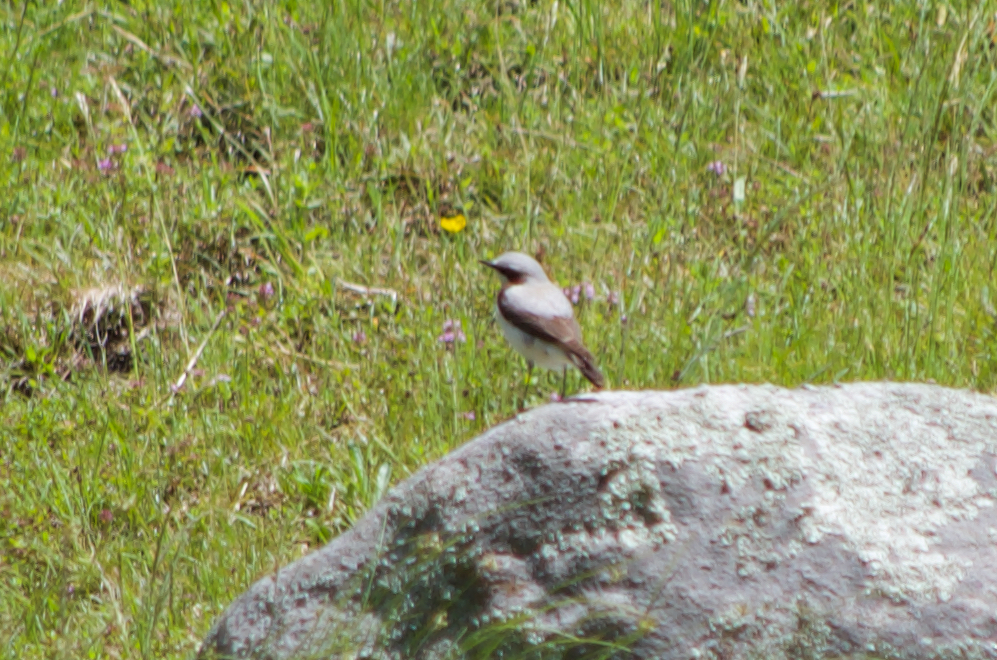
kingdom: Animalia
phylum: Chordata
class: Aves
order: Passeriformes
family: Muscicapidae
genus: Oenanthe
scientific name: Oenanthe oenanthe
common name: Northern wheatear
